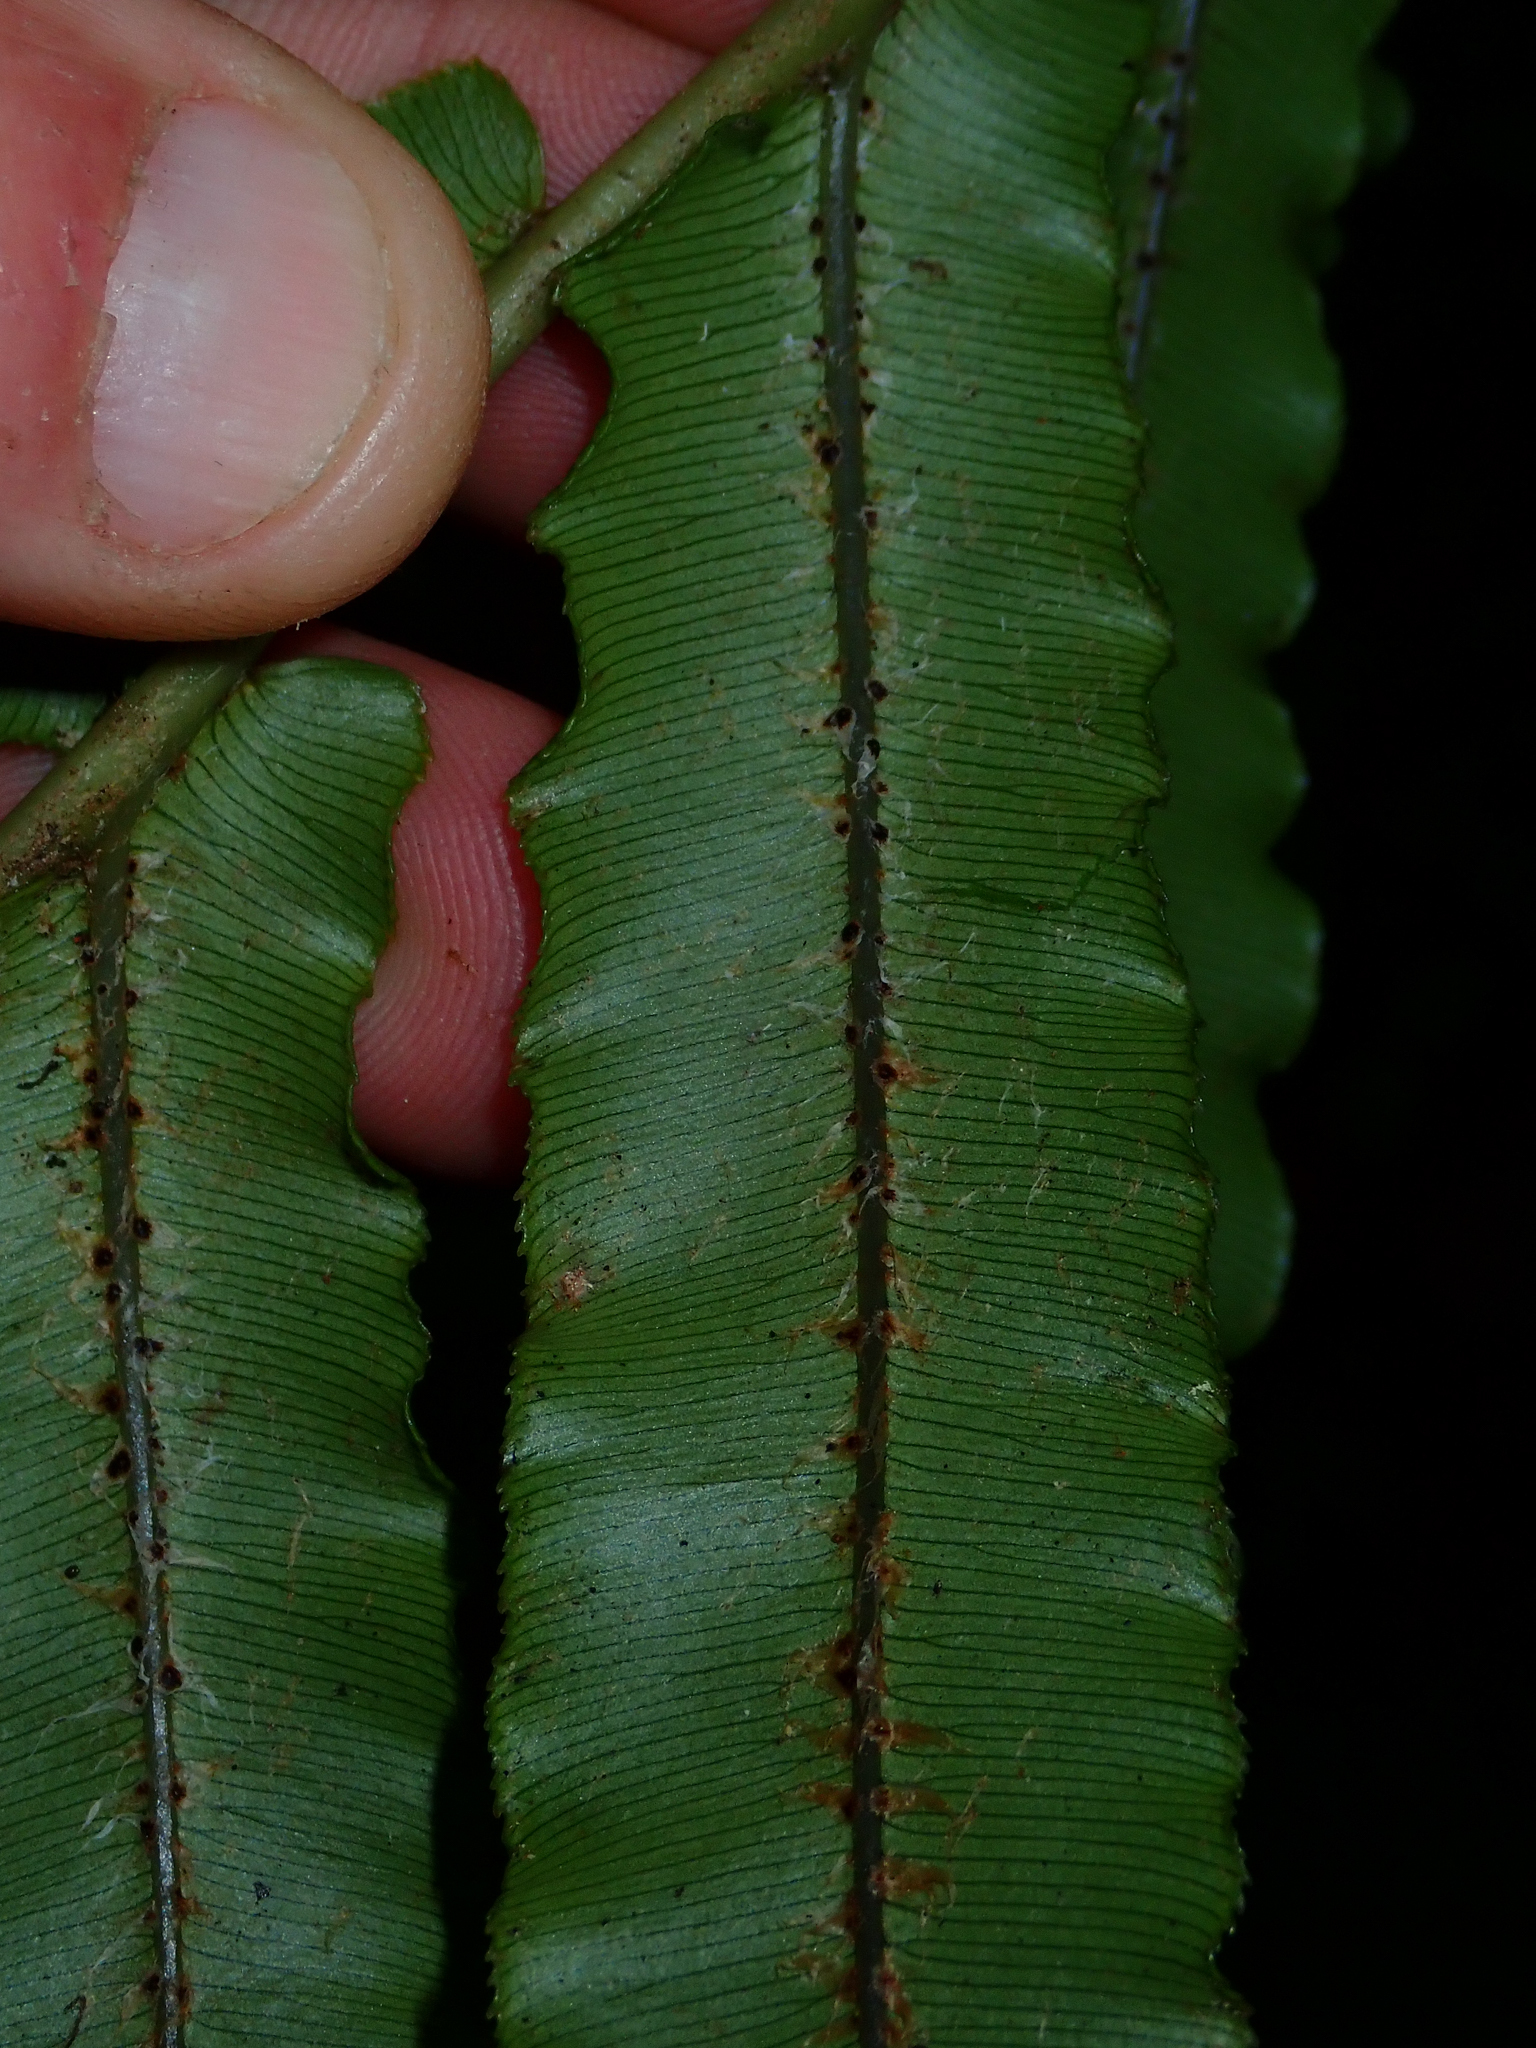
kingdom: Plantae
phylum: Tracheophyta
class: Polypodiopsida
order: Polypodiales
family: Blechnaceae
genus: Parablechnum
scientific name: Parablechnum novae-zelandiae
